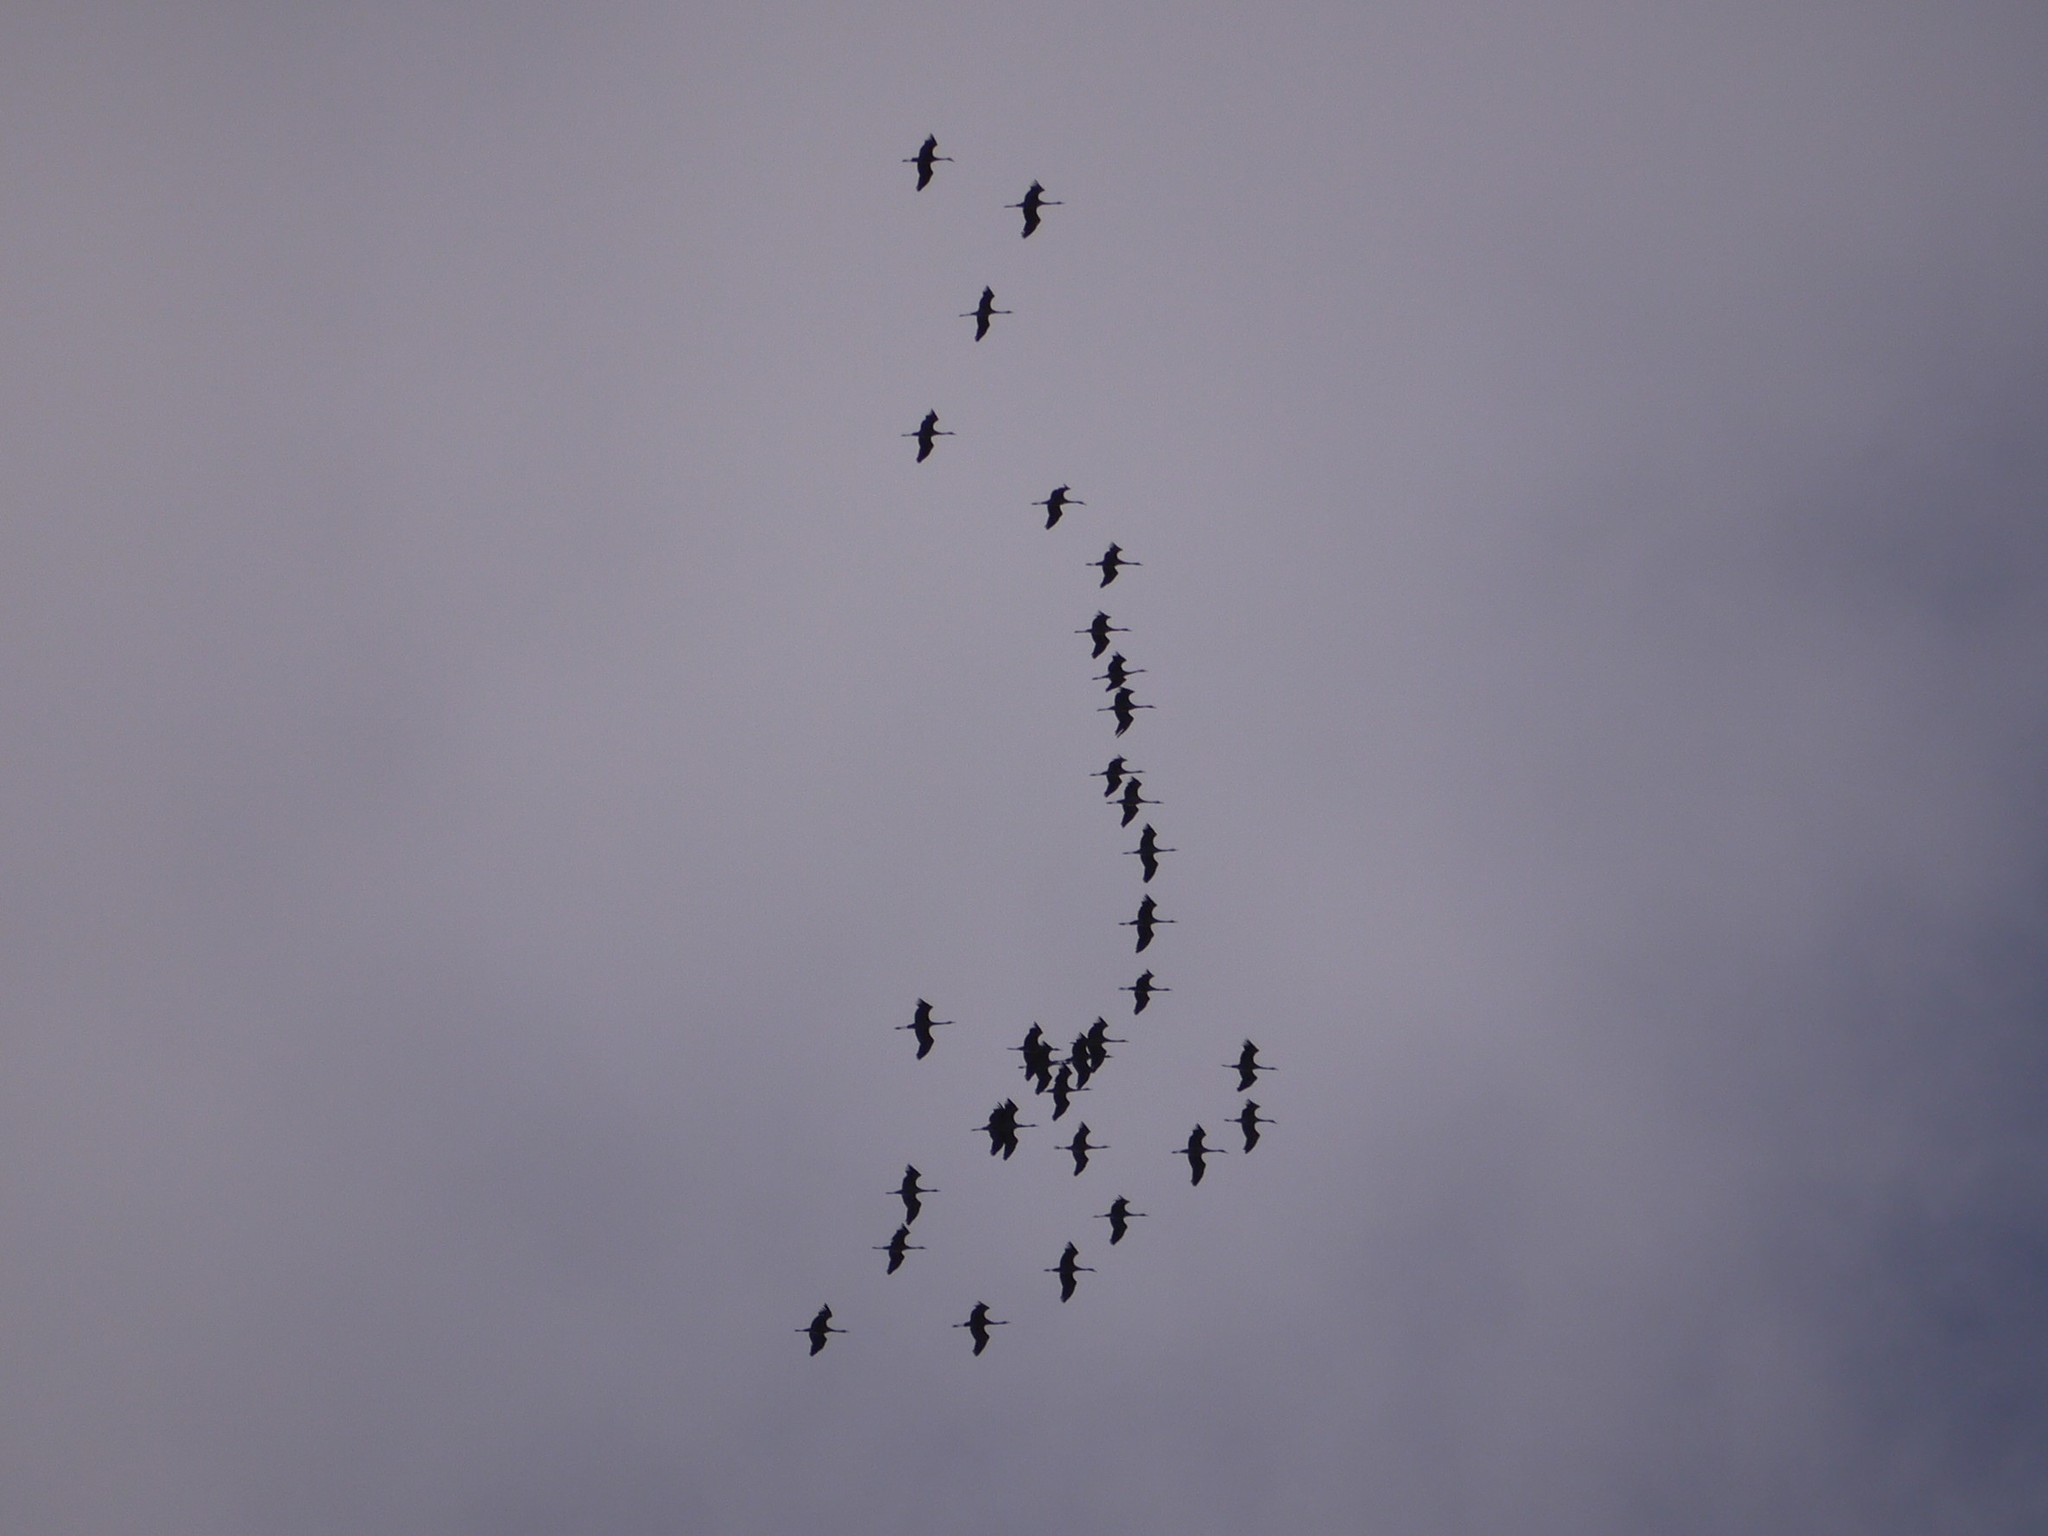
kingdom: Animalia
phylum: Chordata
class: Aves
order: Gruiformes
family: Gruidae
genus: Grus
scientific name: Grus grus
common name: Common crane
